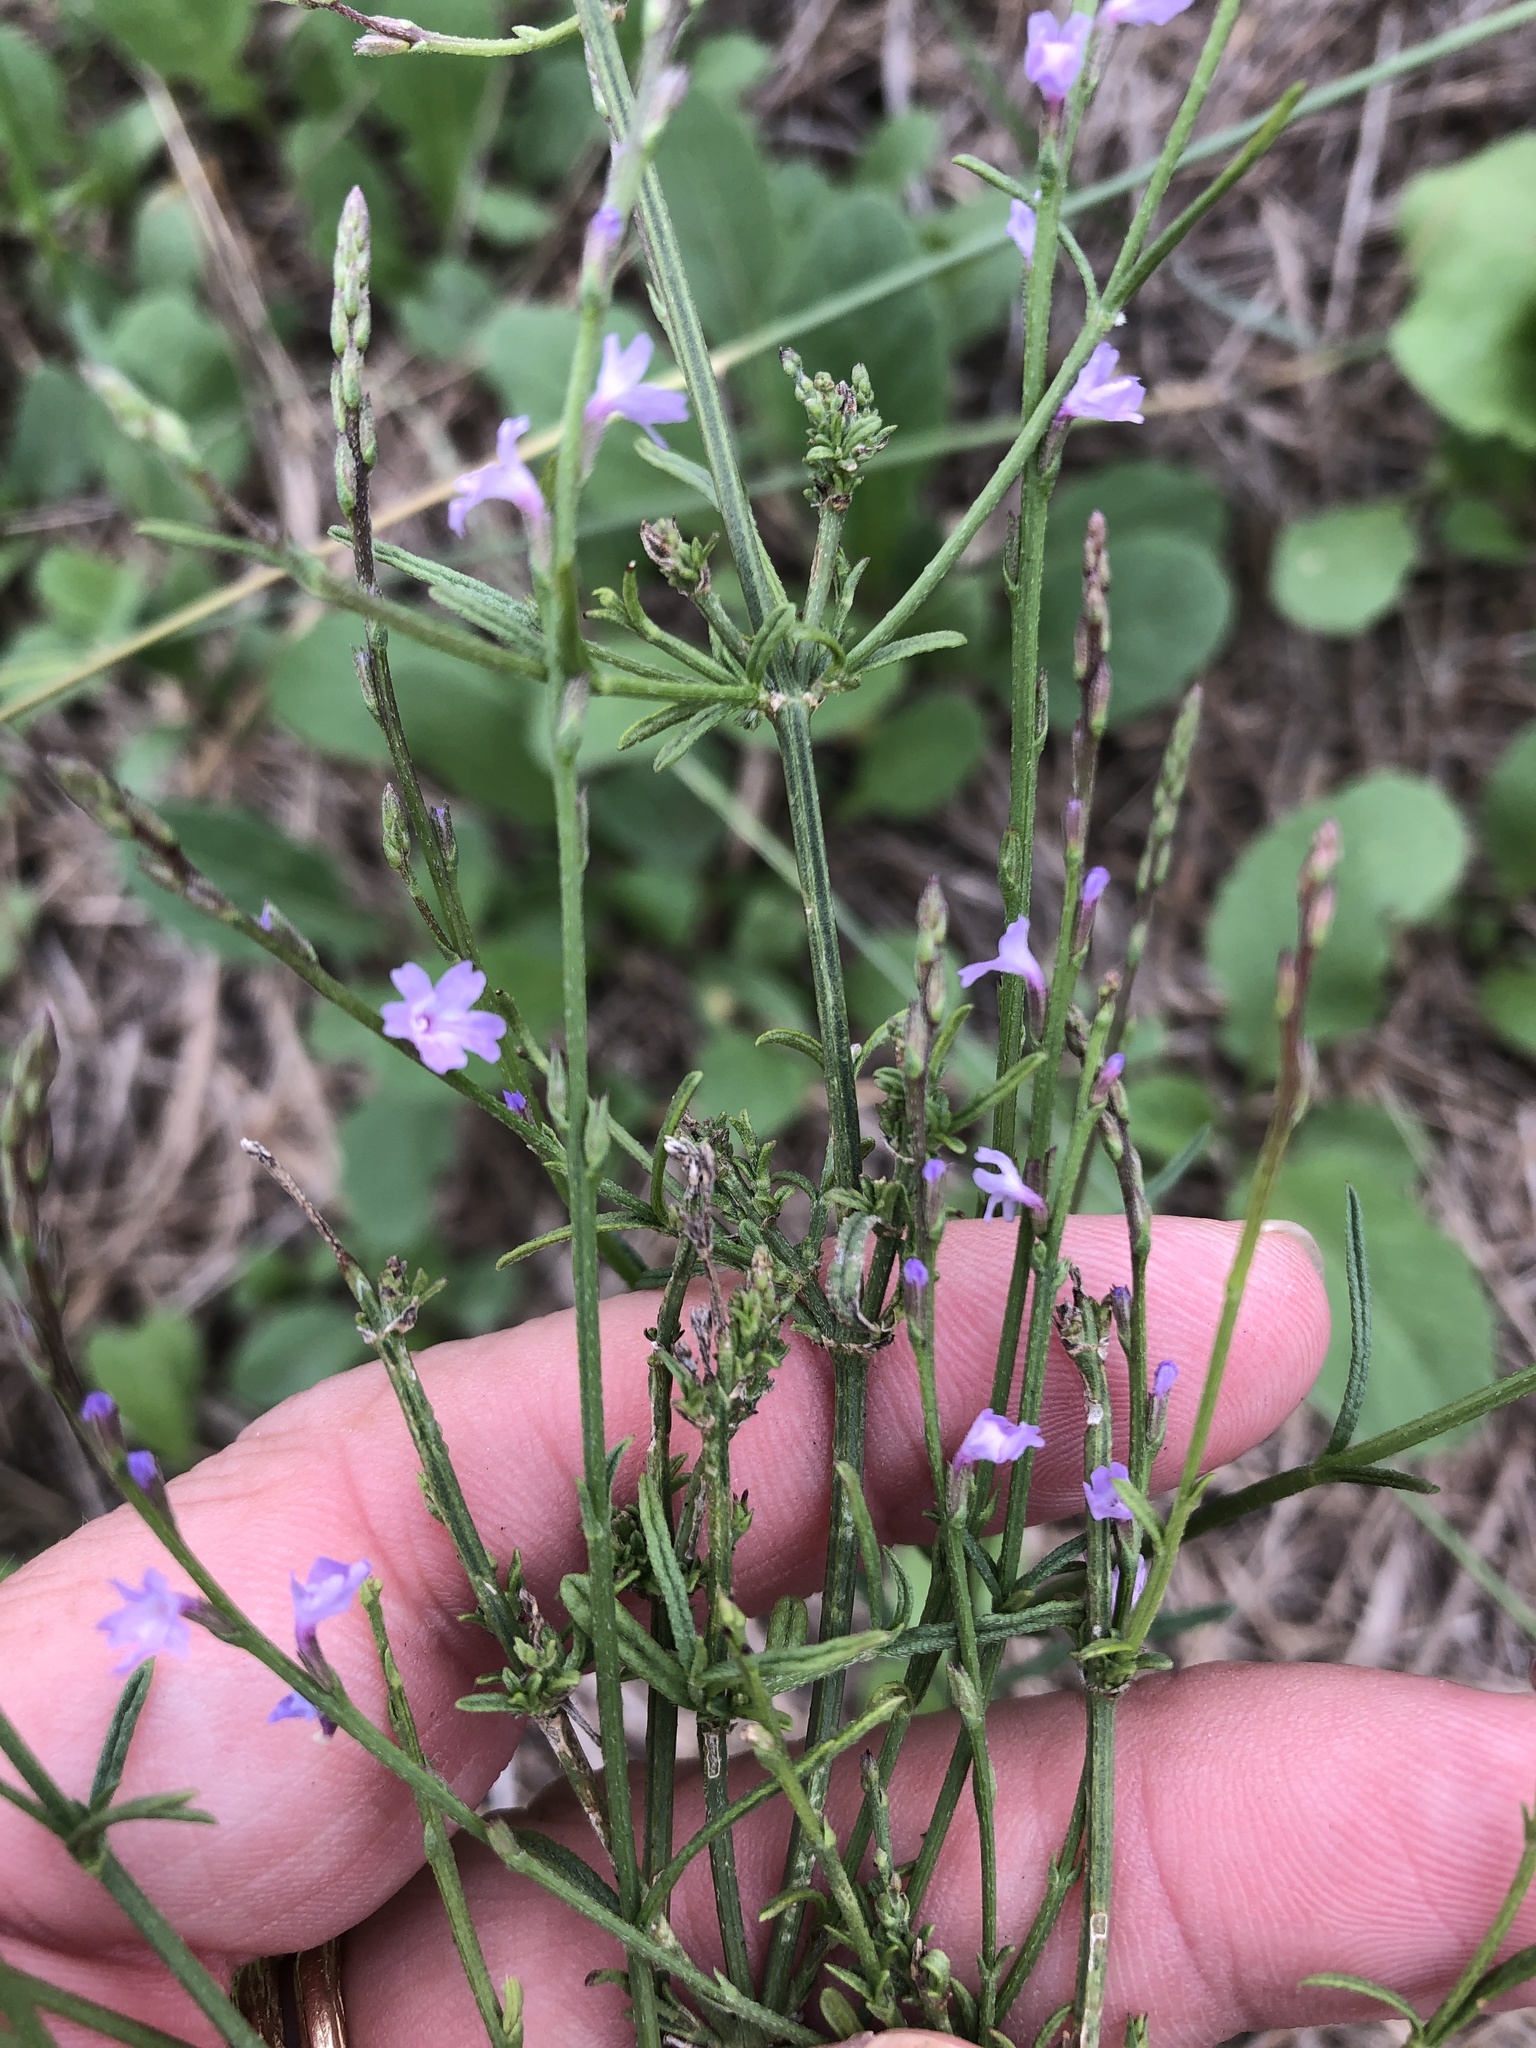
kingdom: Plantae
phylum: Tracheophyta
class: Magnoliopsida
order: Lamiales
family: Verbenaceae
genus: Verbena
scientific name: Verbena halei
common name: Texas vervain
